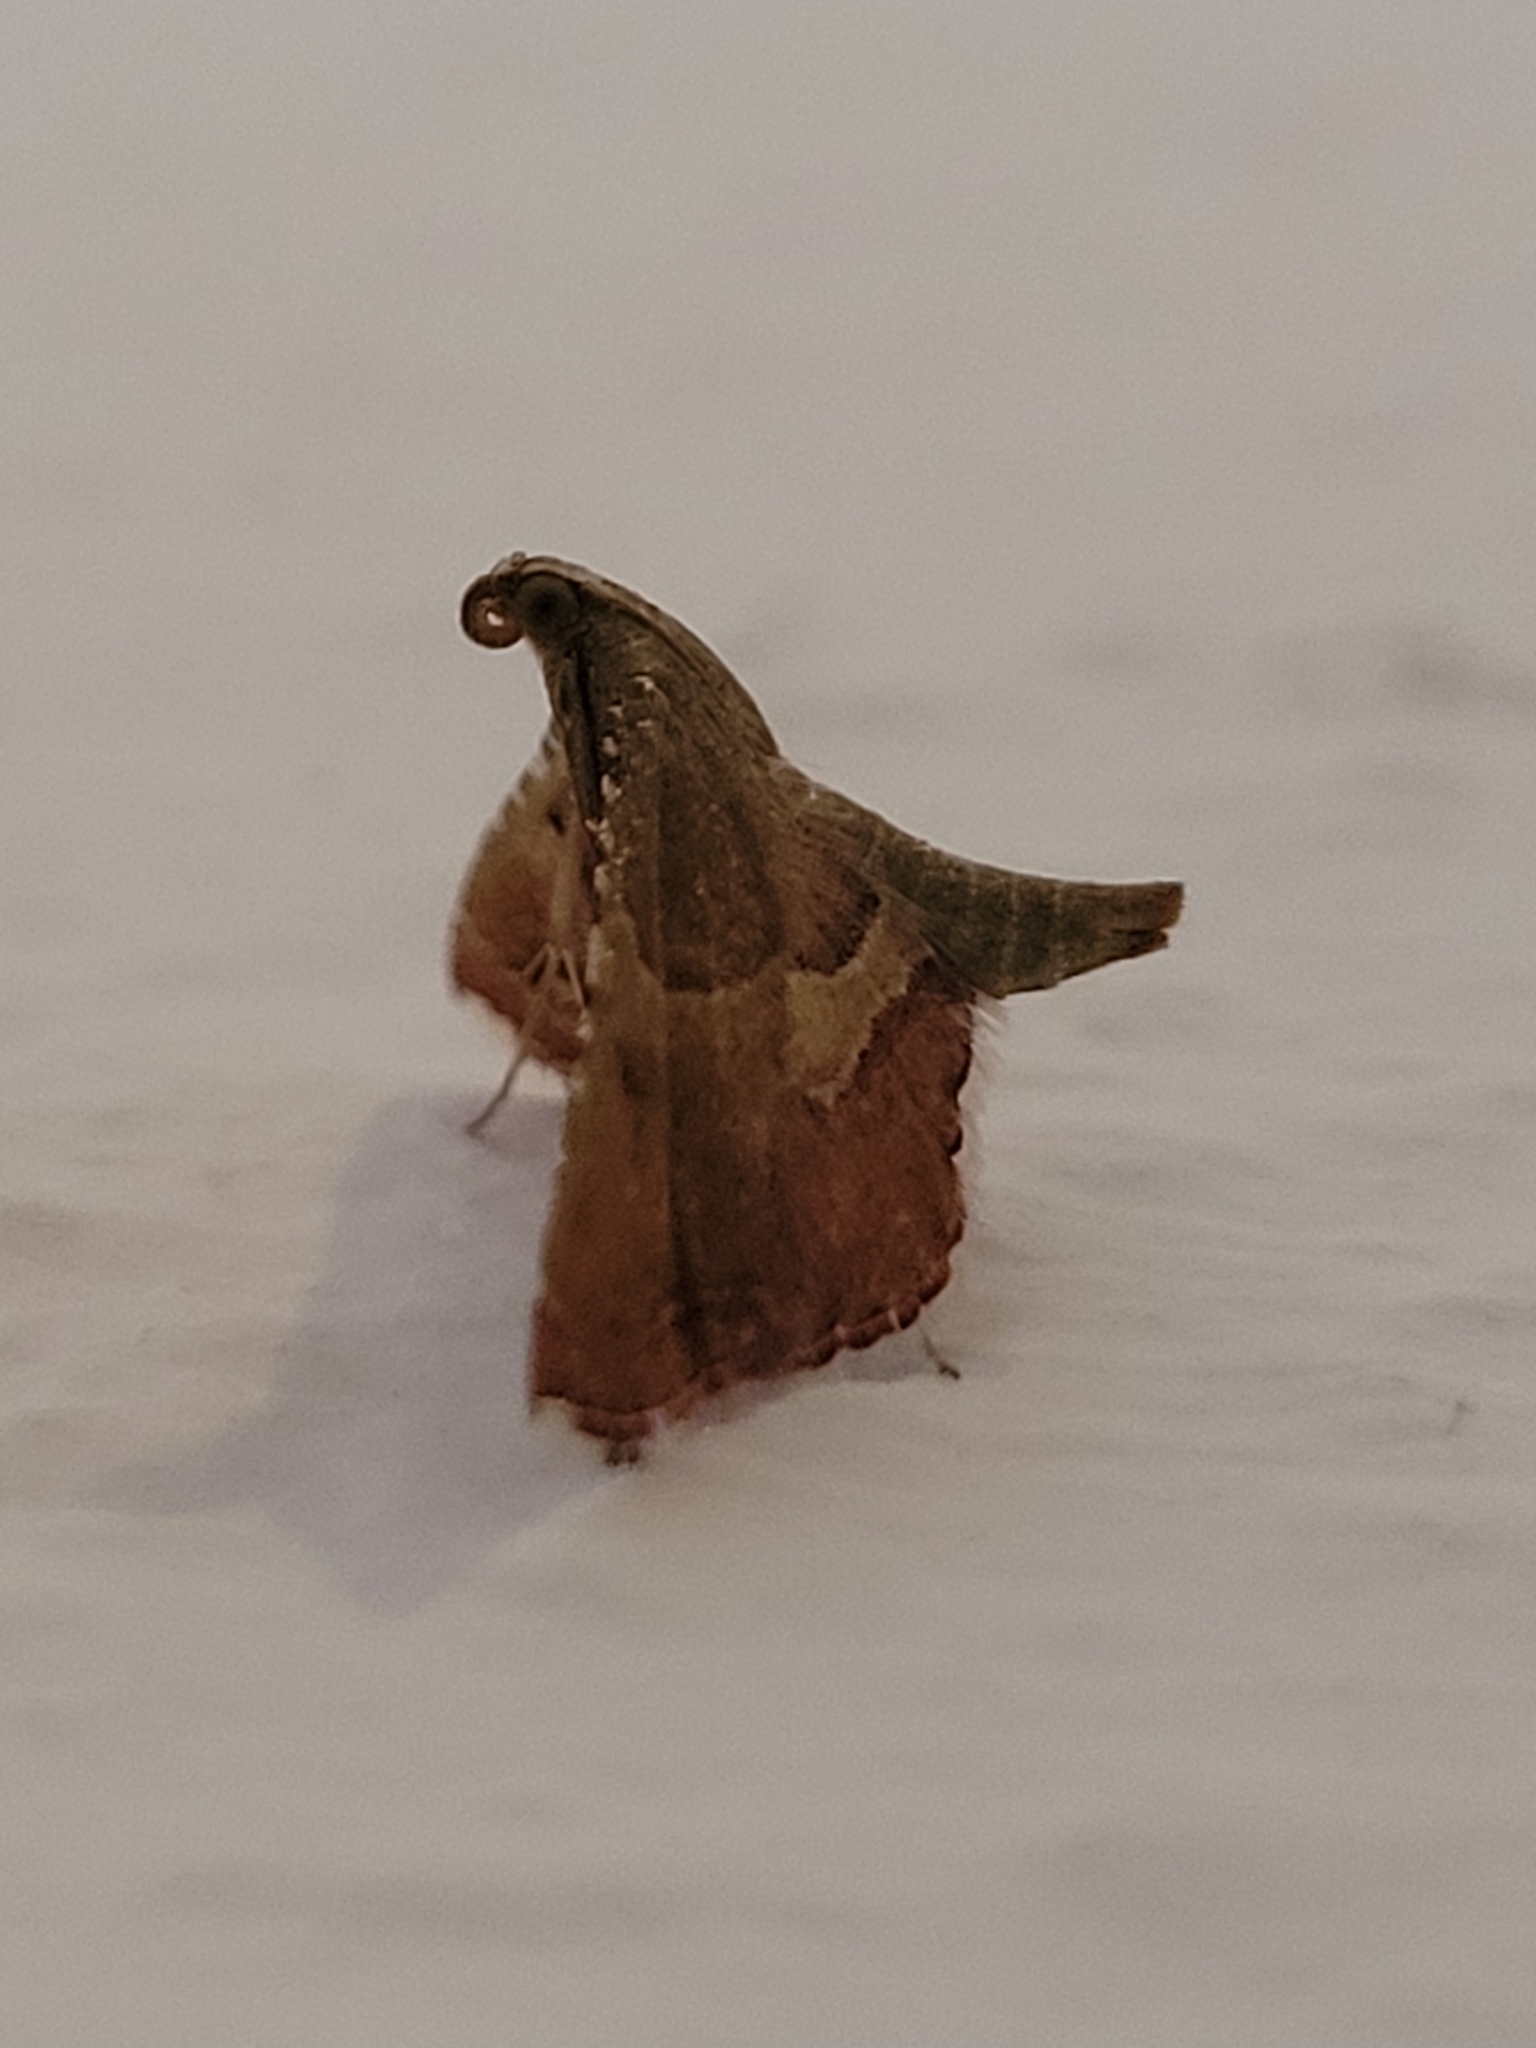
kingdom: Animalia
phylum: Arthropoda
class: Insecta
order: Lepidoptera
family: Pyralidae
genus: Endotricha
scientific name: Endotricha flammealis
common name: Rosy tabby
